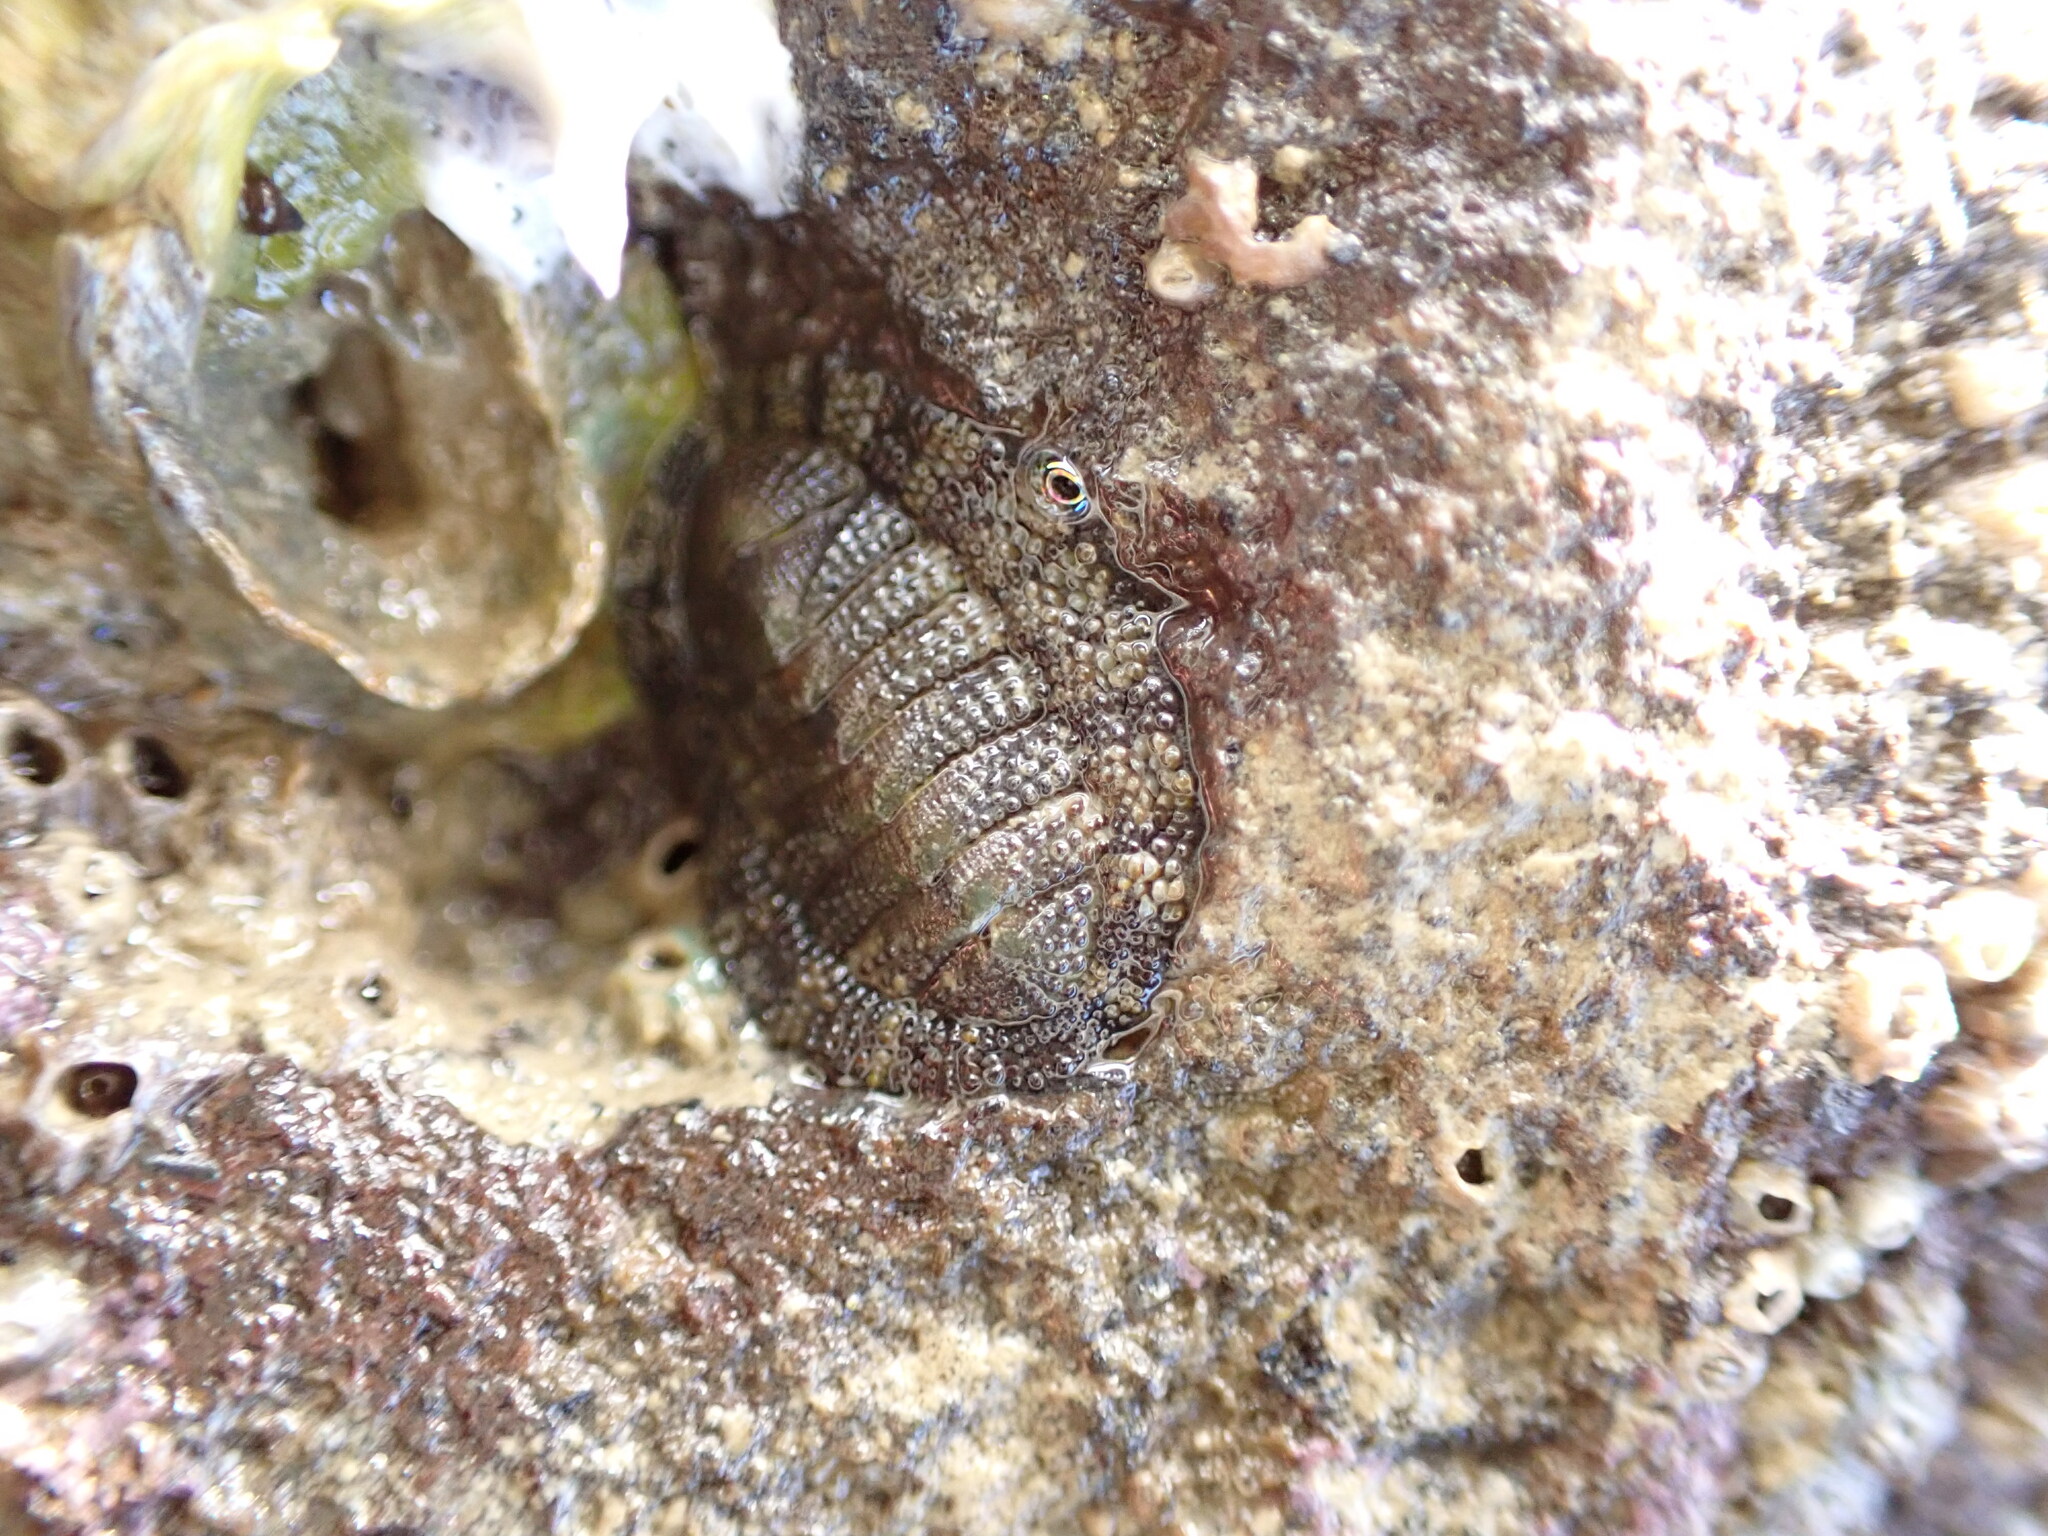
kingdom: Animalia
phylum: Mollusca
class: Polyplacophora
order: Chitonida
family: Chitonidae
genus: Sypharochiton
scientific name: Sypharochiton pelliserpentis
